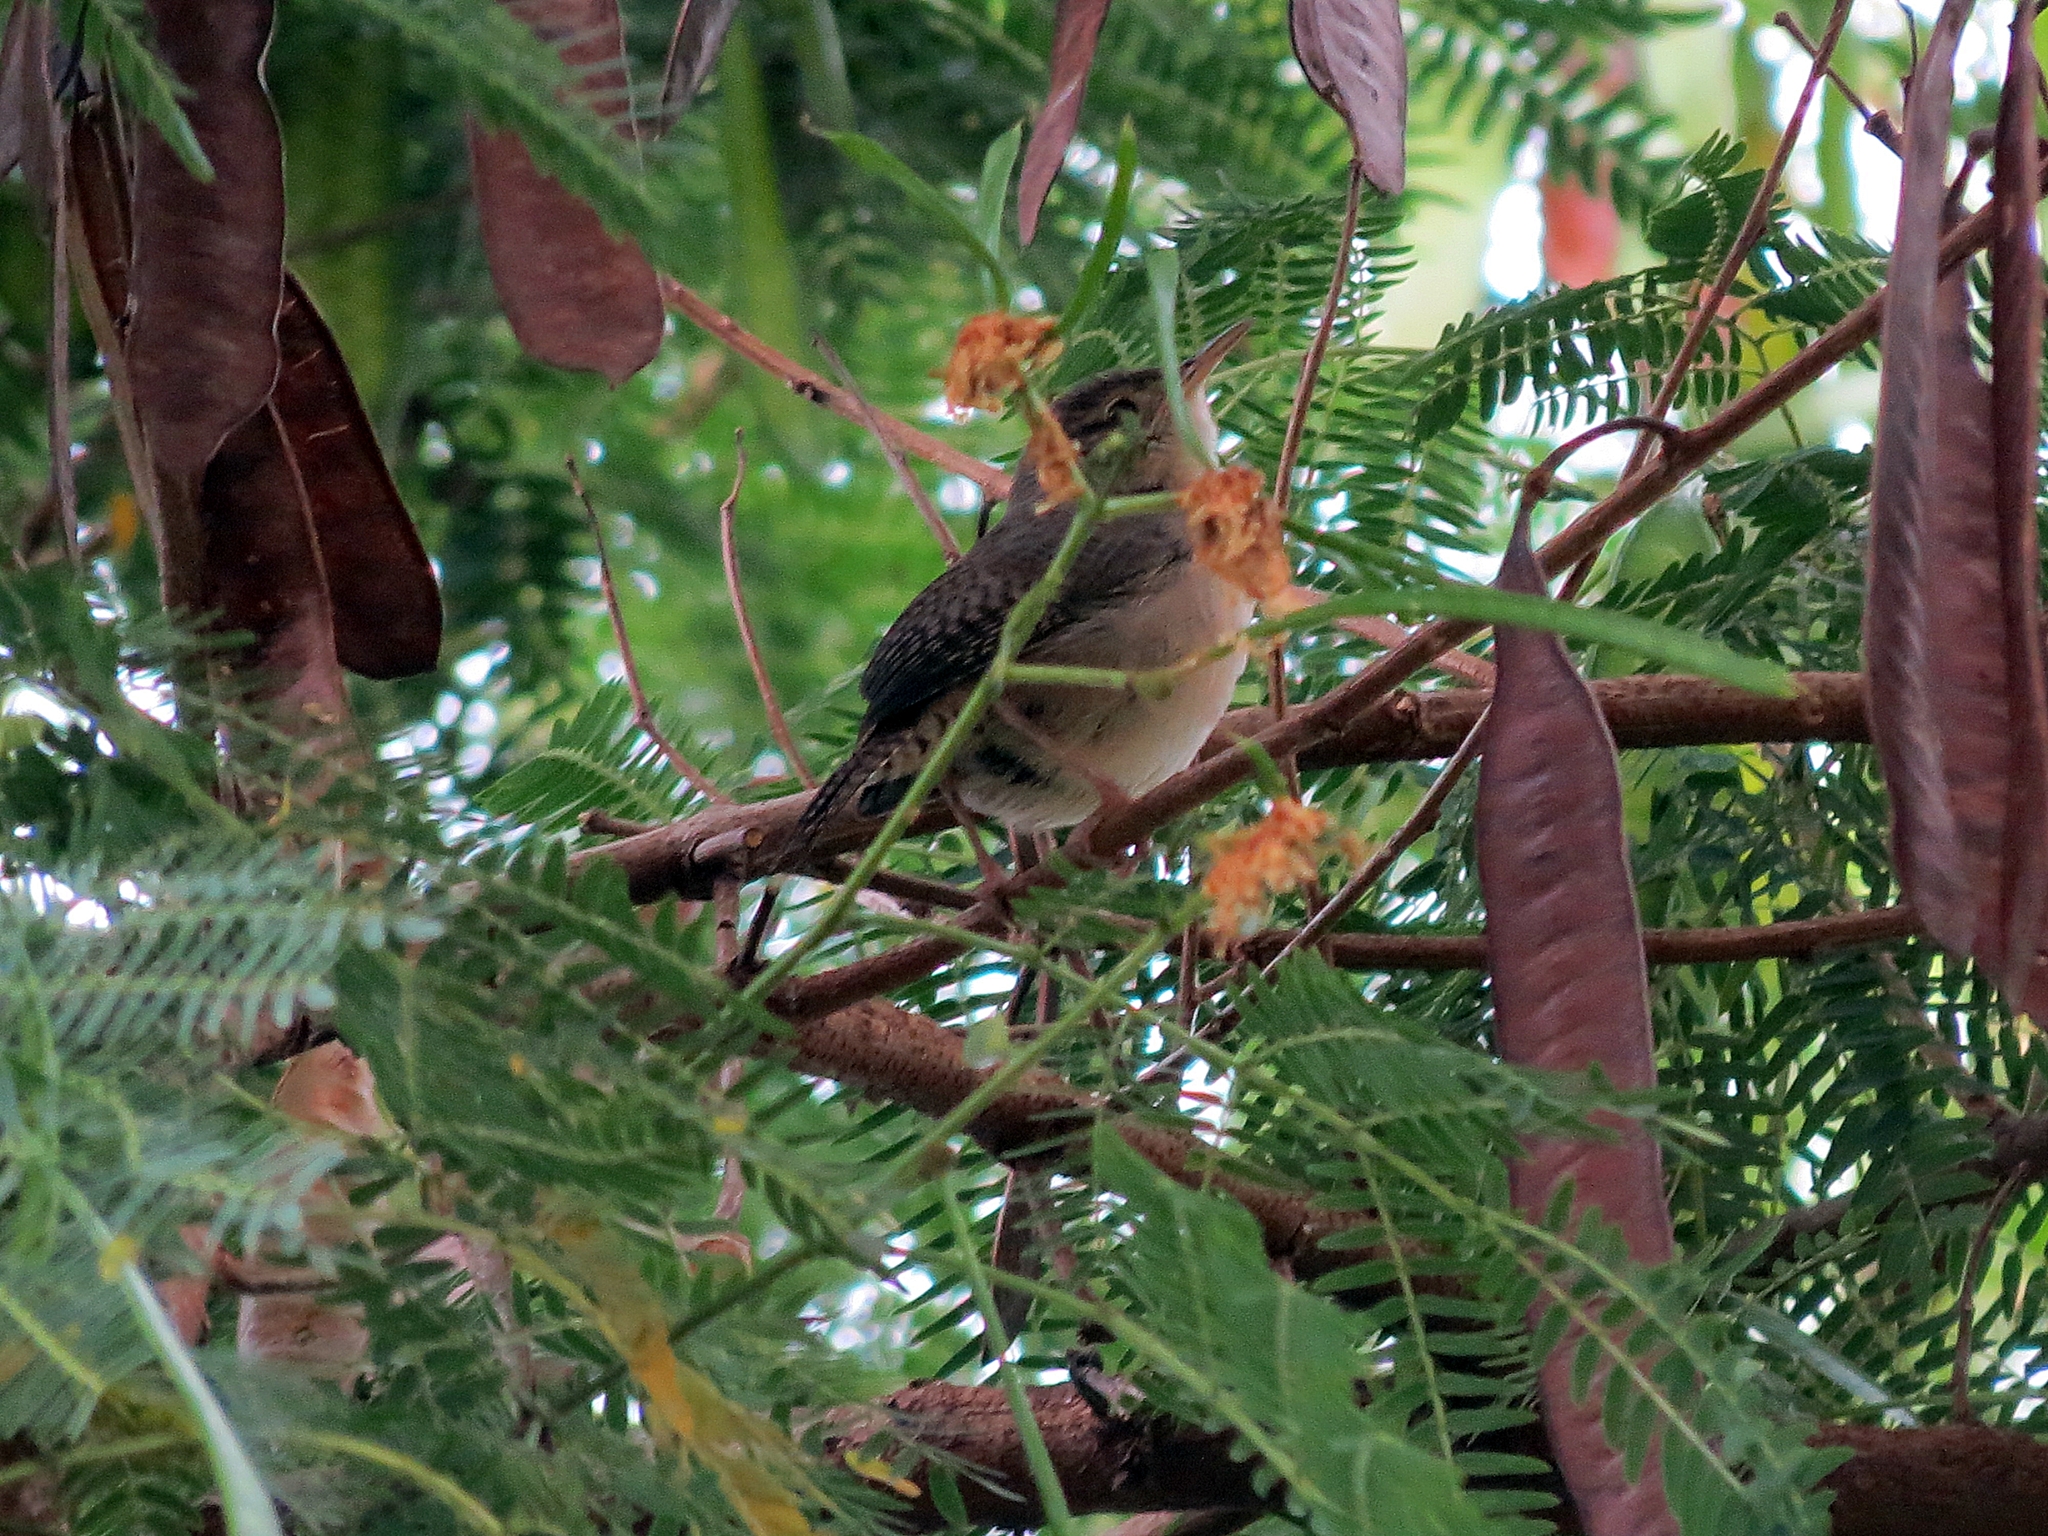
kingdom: Animalia
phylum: Chordata
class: Aves
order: Passeriformes
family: Troglodytidae
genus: Troglodytes
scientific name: Troglodytes aedon
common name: House wren
